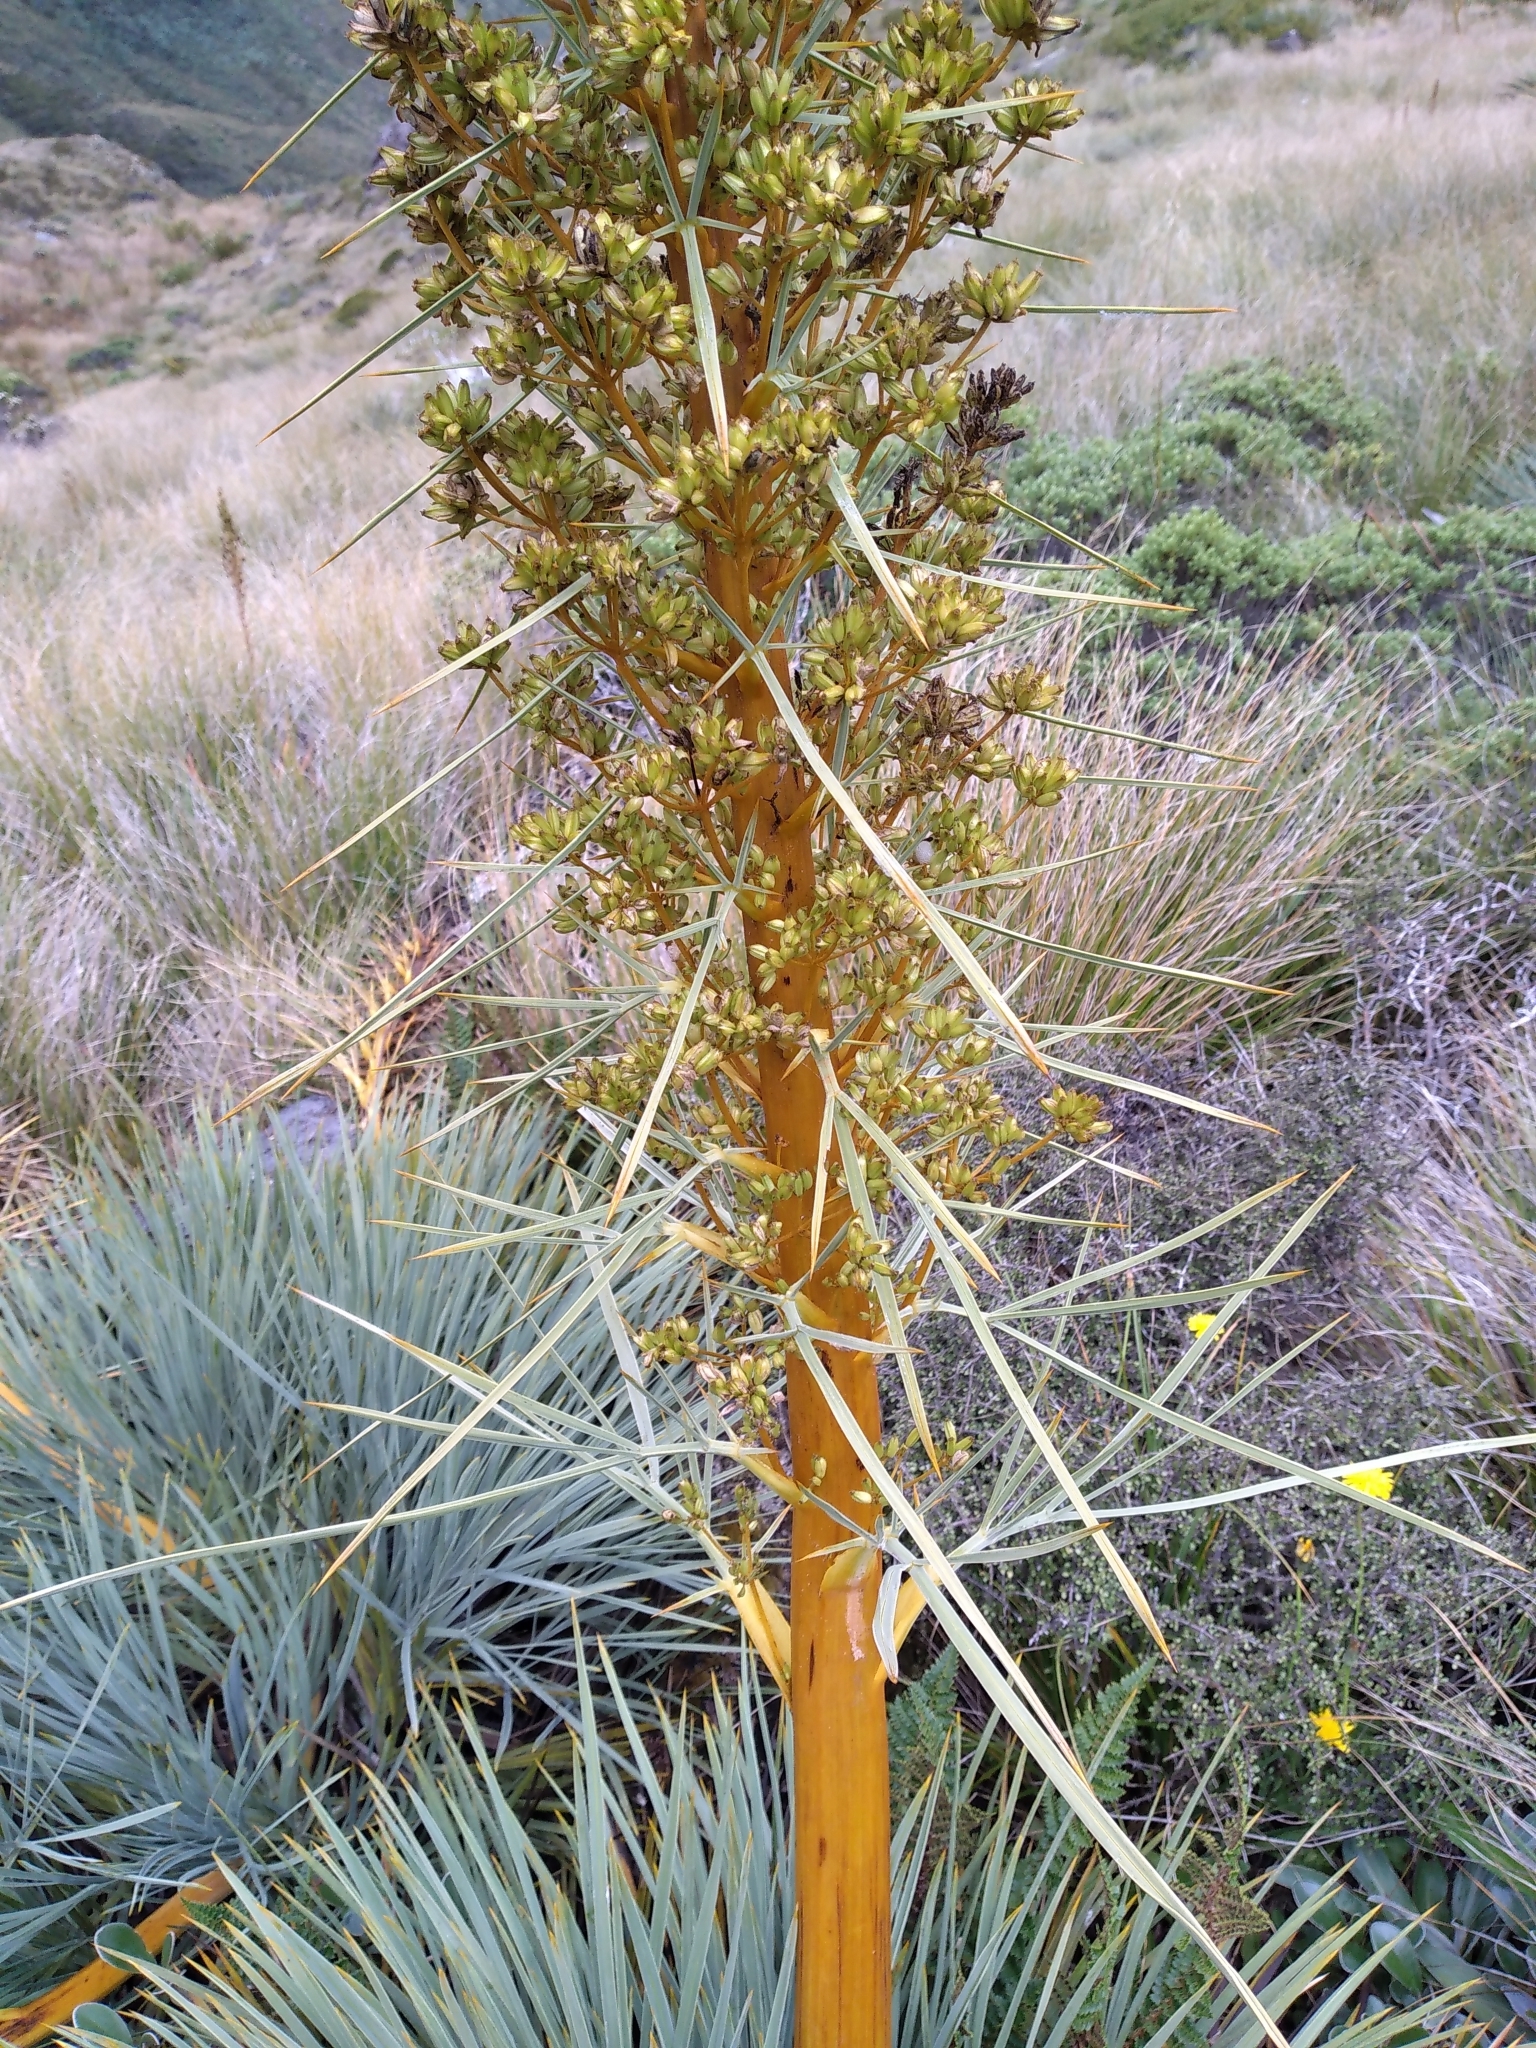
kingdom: Plantae
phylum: Tracheophyta
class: Magnoliopsida
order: Apiales
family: Apiaceae
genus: Aciphylla
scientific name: Aciphylla glaucescens
